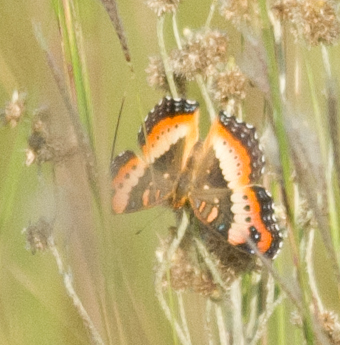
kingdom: Animalia
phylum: Arthropoda
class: Insecta
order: Lepidoptera
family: Nymphalidae
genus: Precis
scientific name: Precis ceryne
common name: Marsh commodore
